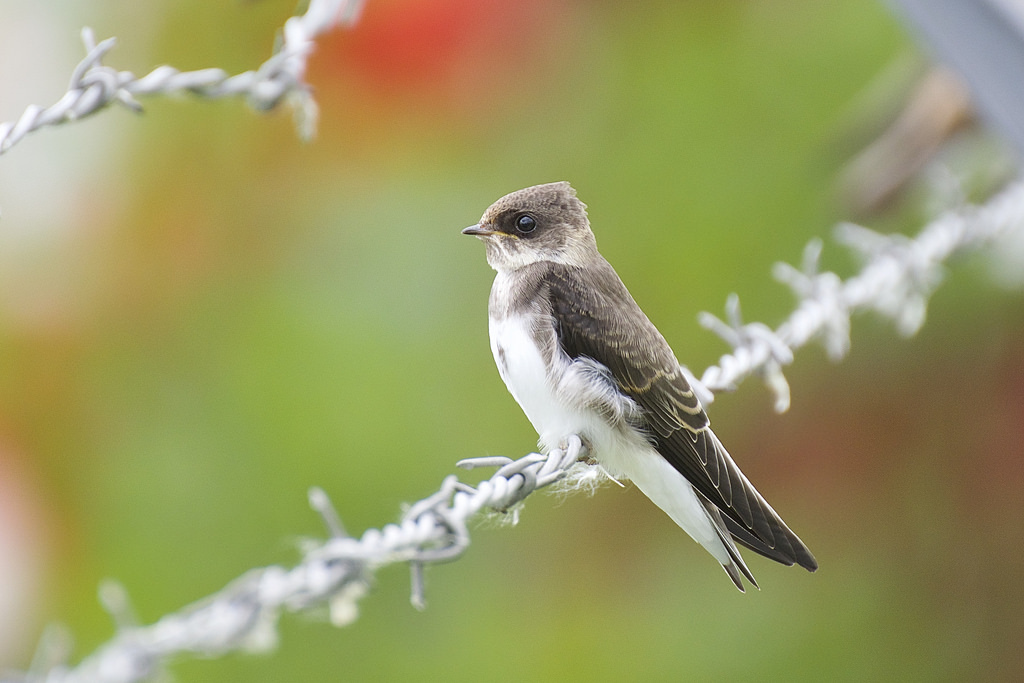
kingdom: Animalia
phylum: Chordata
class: Aves
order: Passeriformes
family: Hirundinidae
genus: Riparia
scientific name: Riparia riparia
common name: Sand martin
